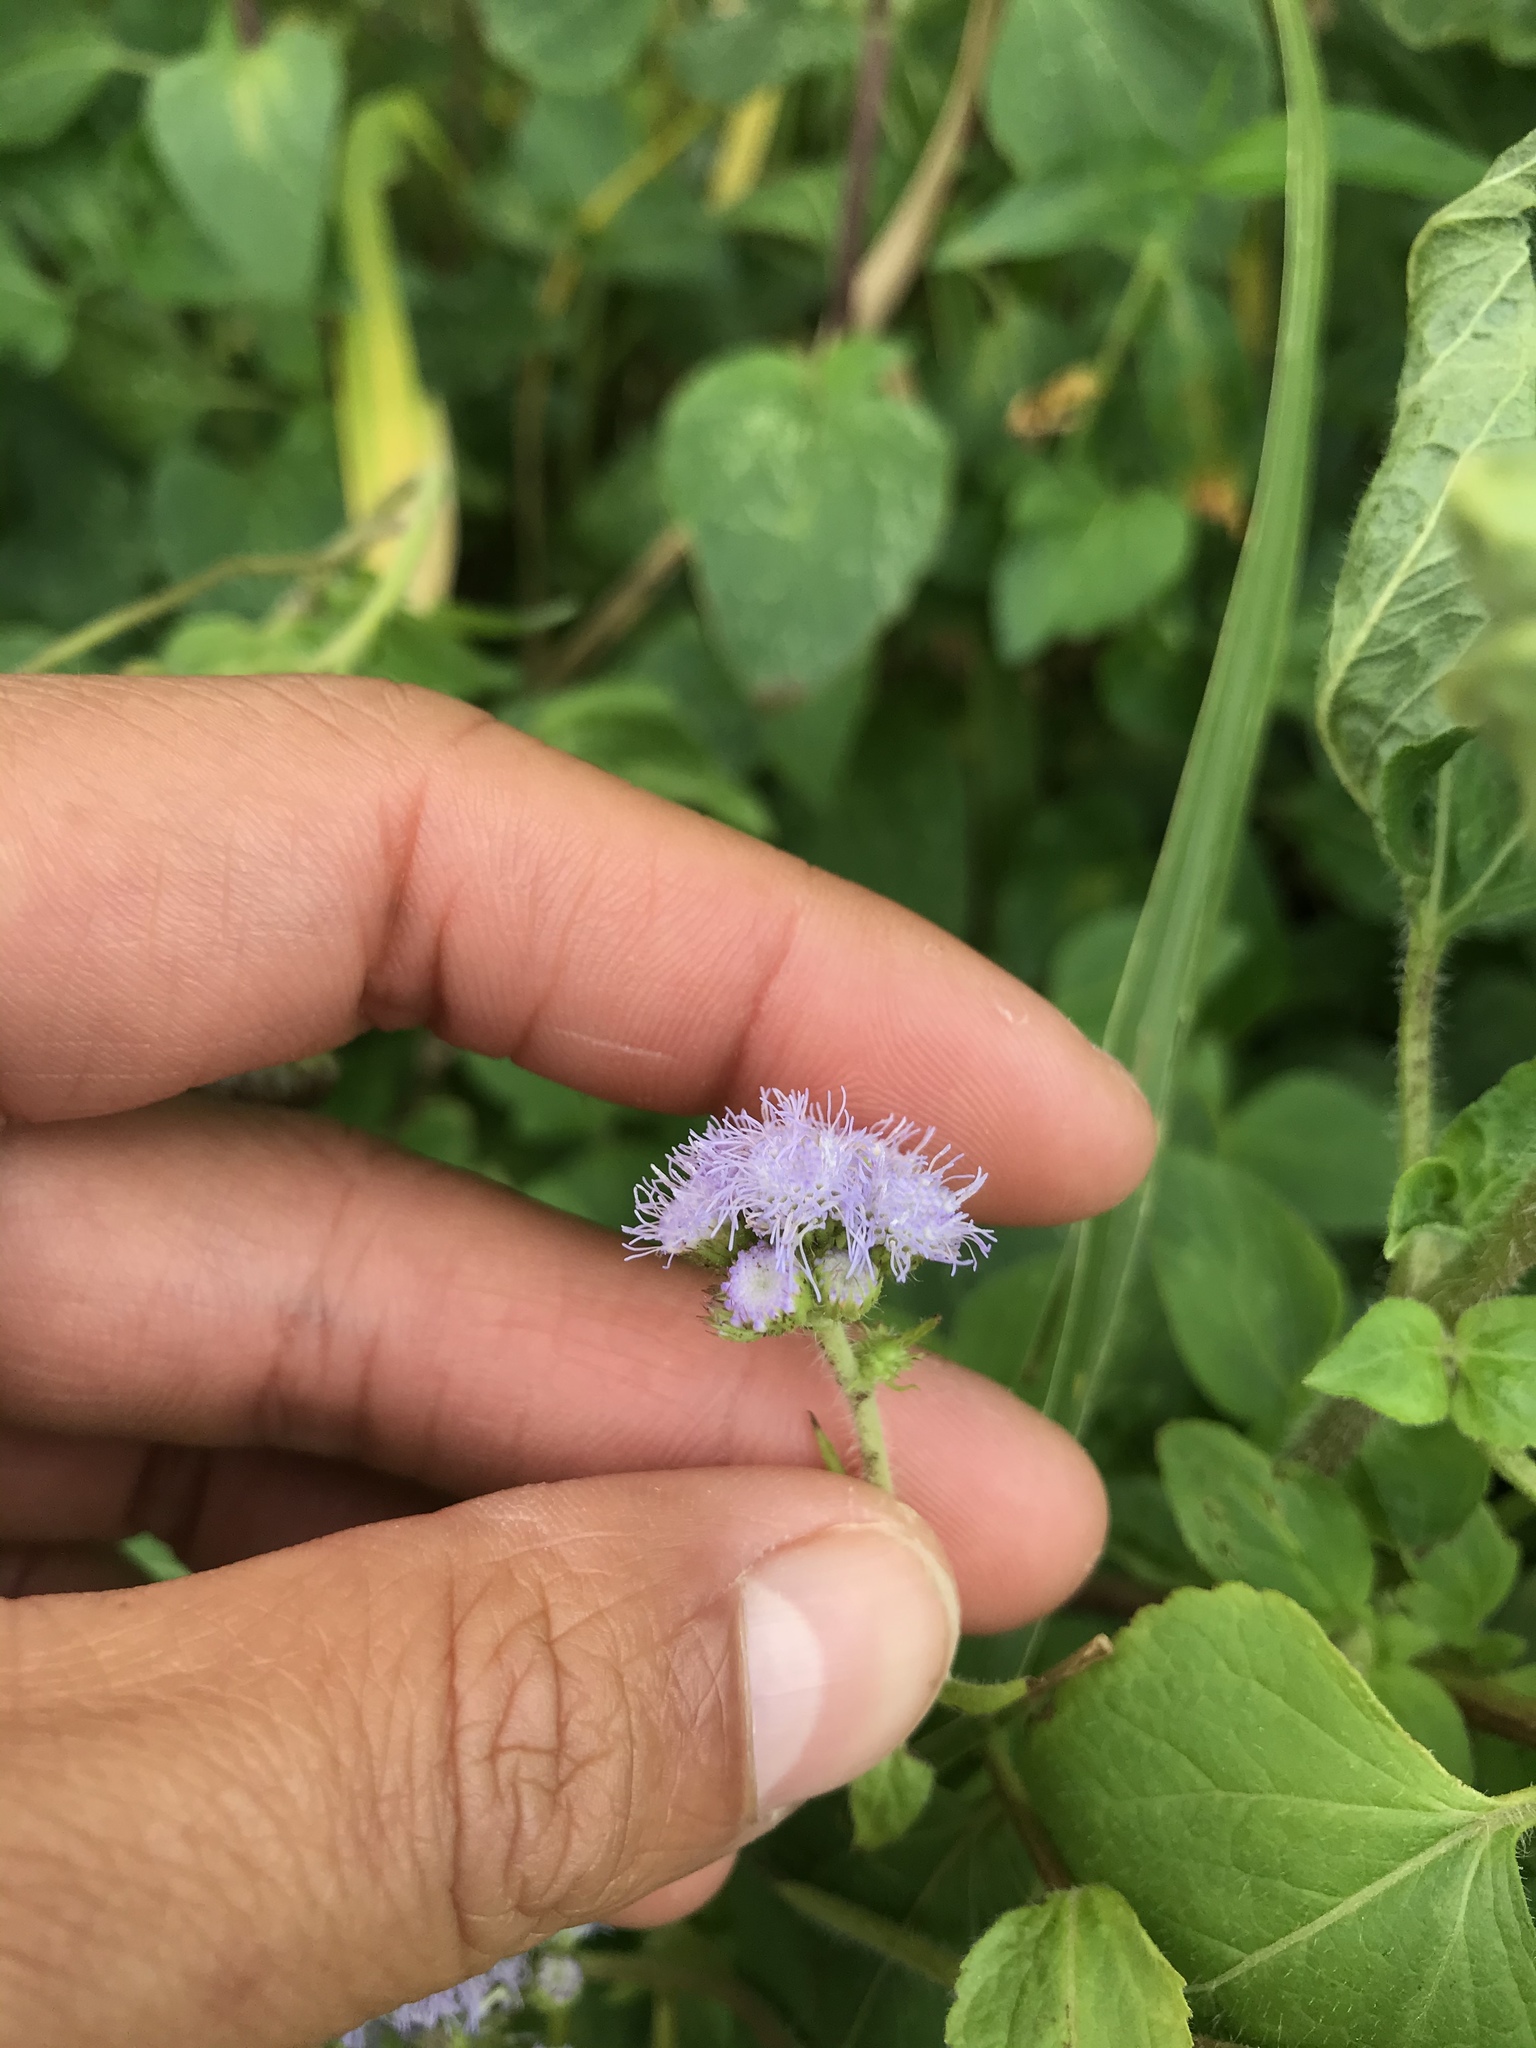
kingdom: Plantae
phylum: Tracheophyta
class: Magnoliopsida
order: Asterales
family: Asteraceae
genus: Ageratum
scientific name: Ageratum houstonianum
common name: Bluemink
